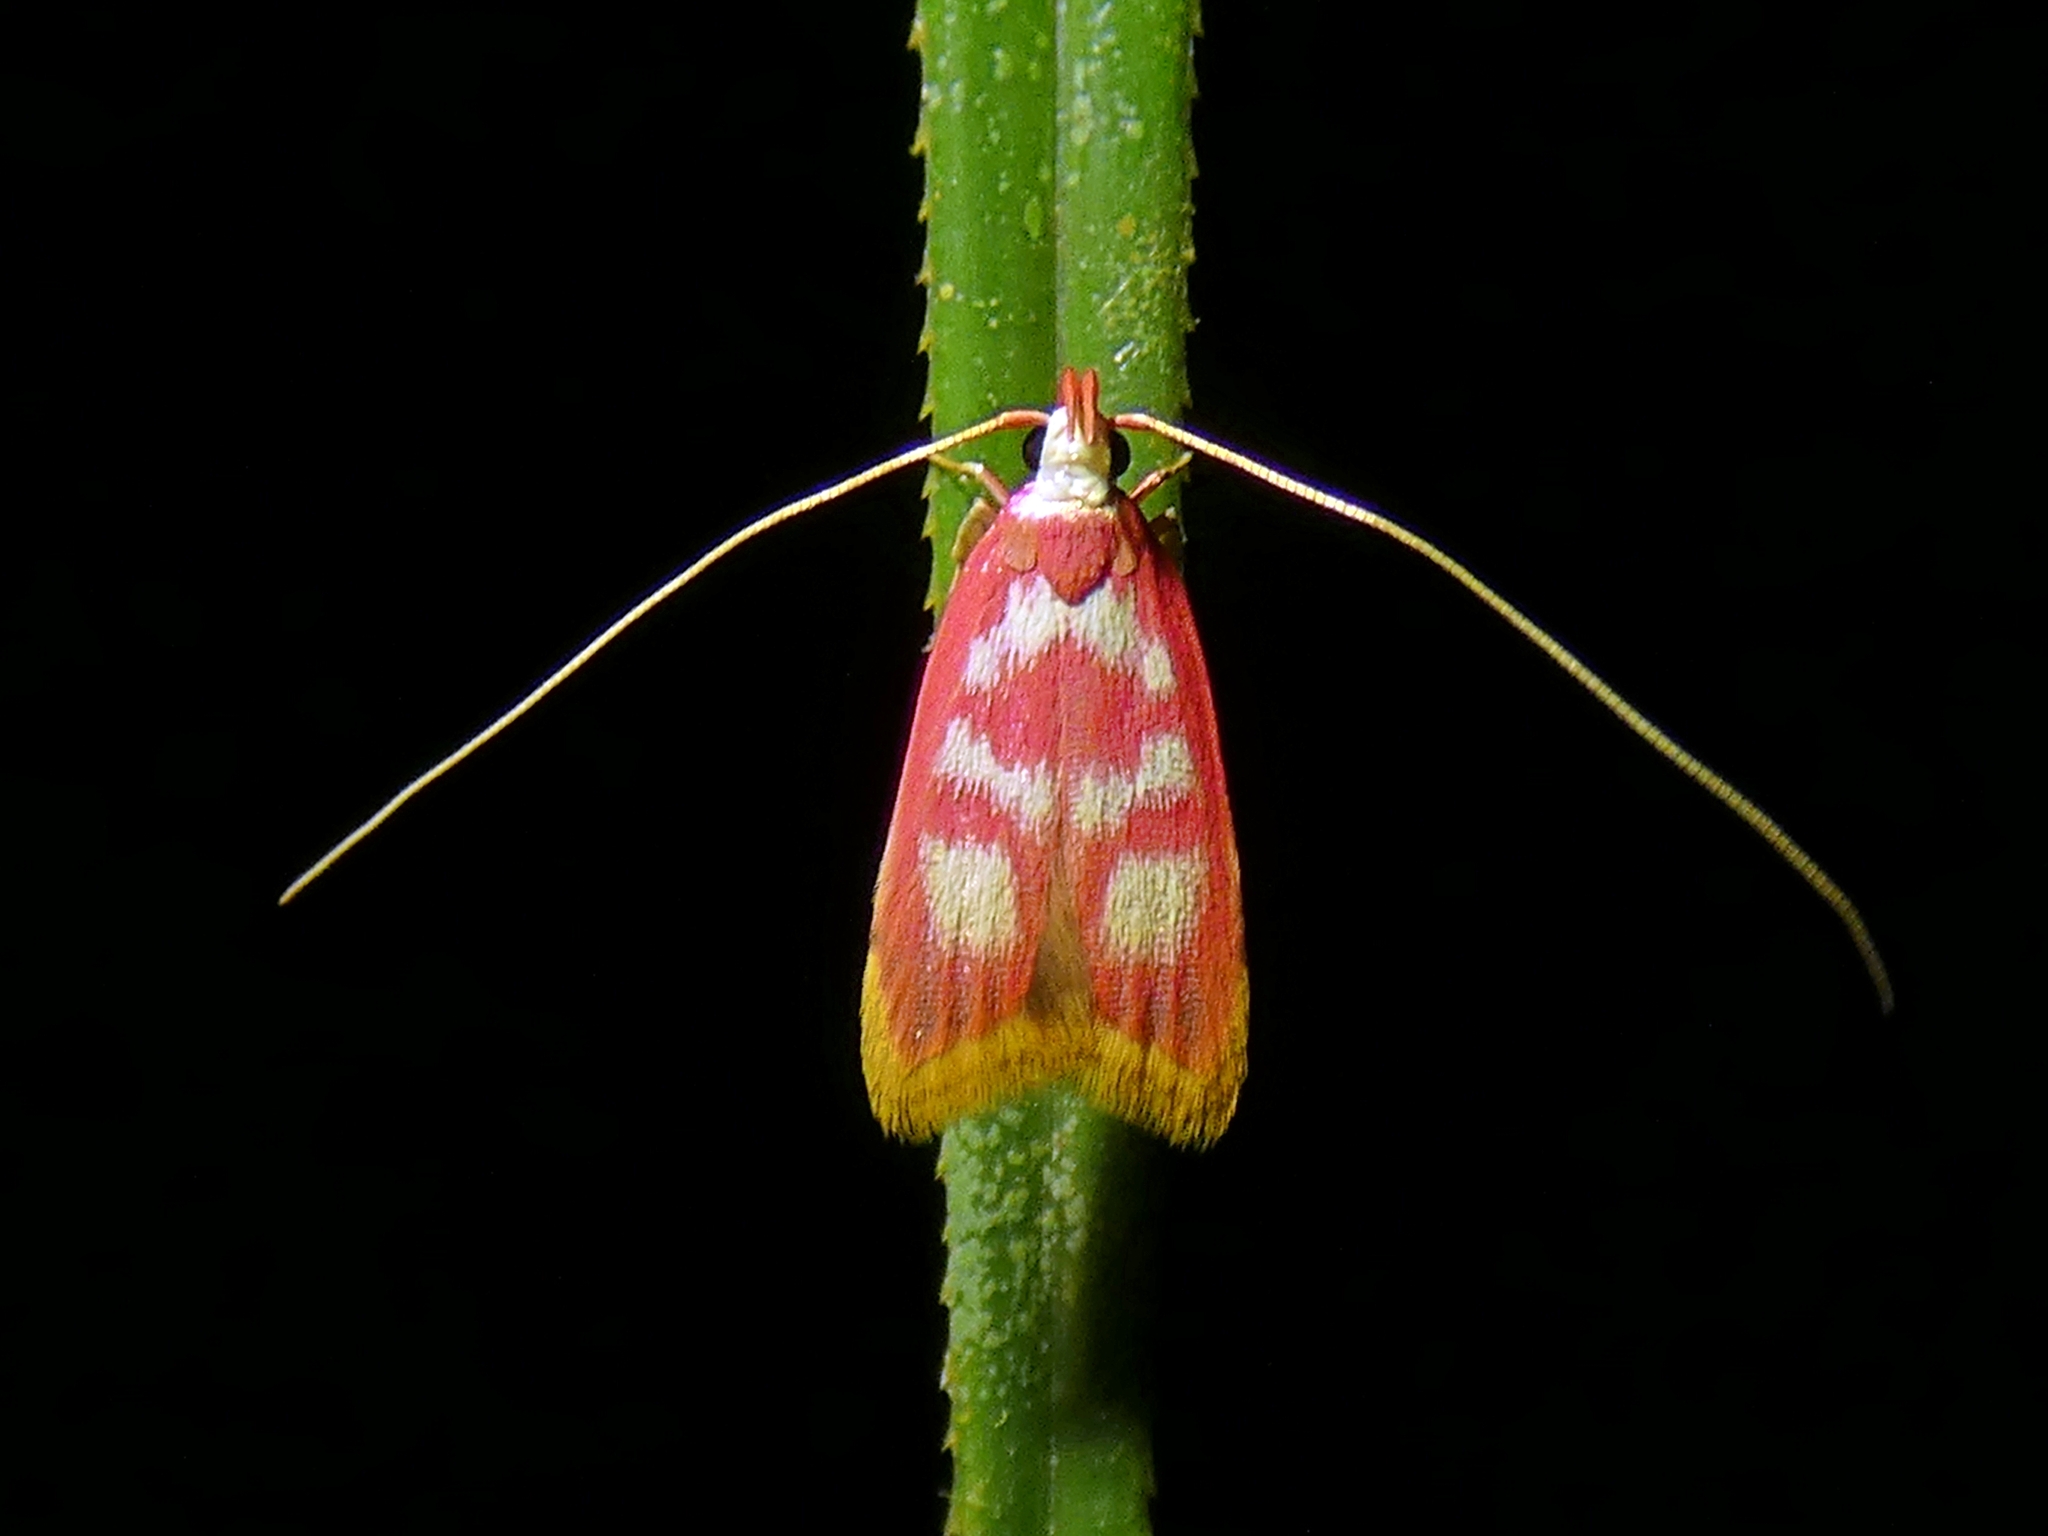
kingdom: Animalia
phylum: Arthropoda
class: Insecta
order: Lepidoptera
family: Lecithoceridae
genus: Crocanthes
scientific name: Crocanthes sidonia
